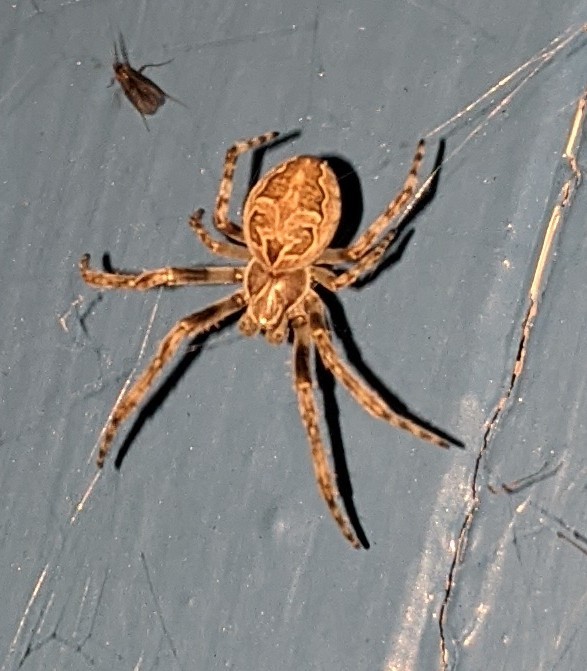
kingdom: Animalia
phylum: Arthropoda
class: Arachnida
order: Araneae
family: Araneidae
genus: Larinioides
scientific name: Larinioides sclopetarius
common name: Bridge orbweaver
